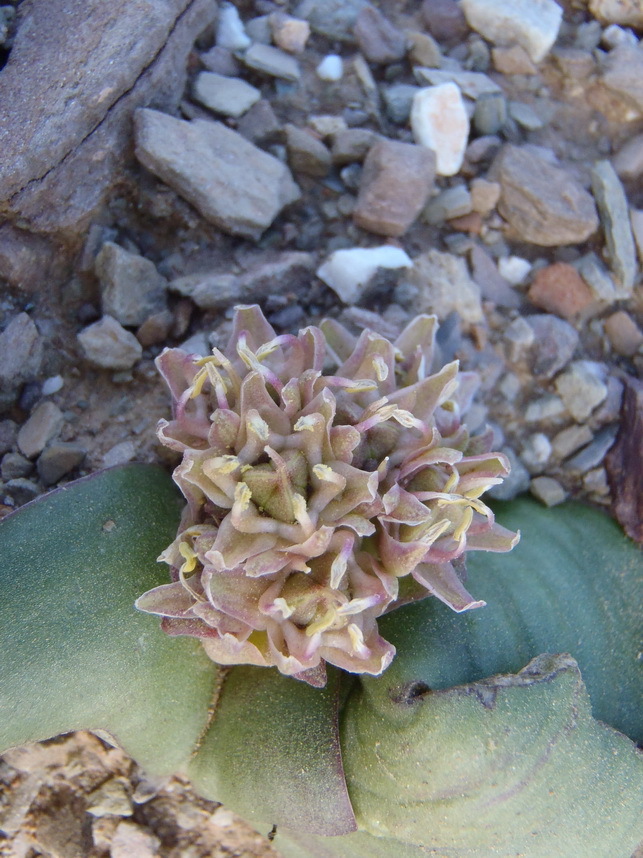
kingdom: Plantae
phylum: Tracheophyta
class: Liliopsida
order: Asparagales
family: Asparagaceae
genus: Massonia
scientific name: Massonia obermeyerae
